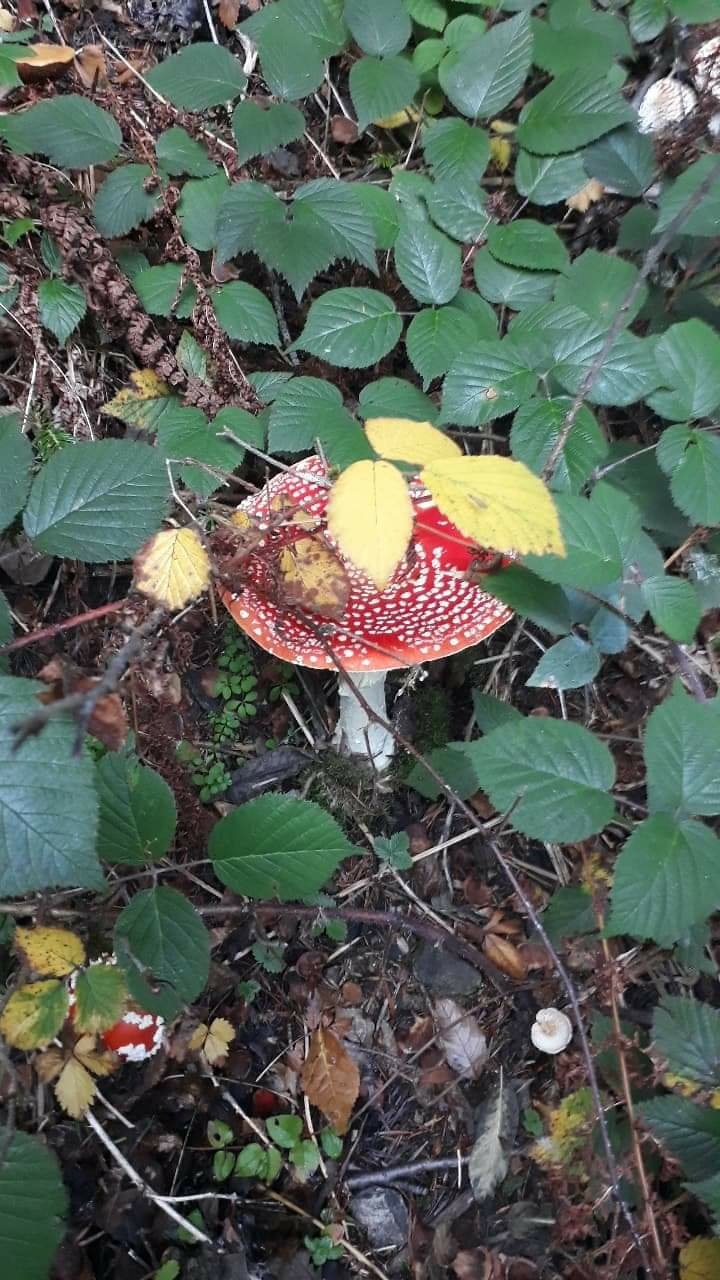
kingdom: Fungi
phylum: Basidiomycota
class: Agaricomycetes
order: Agaricales
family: Amanitaceae
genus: Amanita
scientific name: Amanita muscaria
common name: Fly agaric
